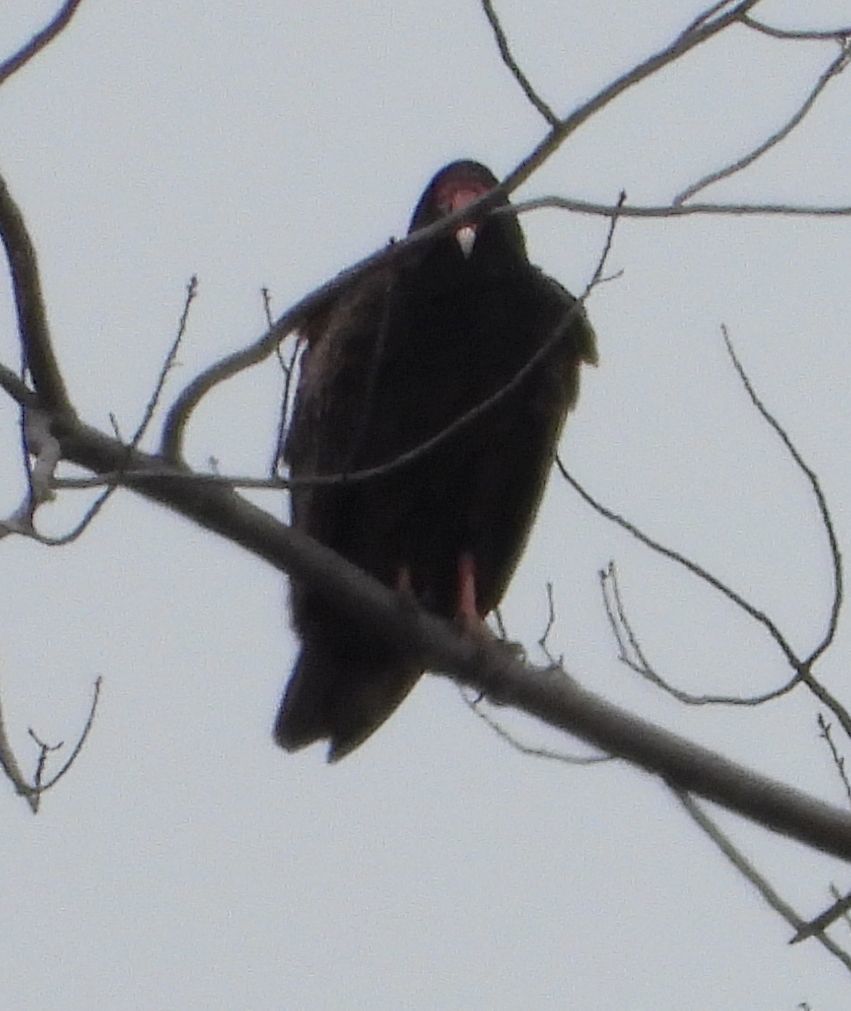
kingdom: Animalia
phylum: Chordata
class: Aves
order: Accipitriformes
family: Cathartidae
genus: Cathartes
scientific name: Cathartes aura
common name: Turkey vulture
